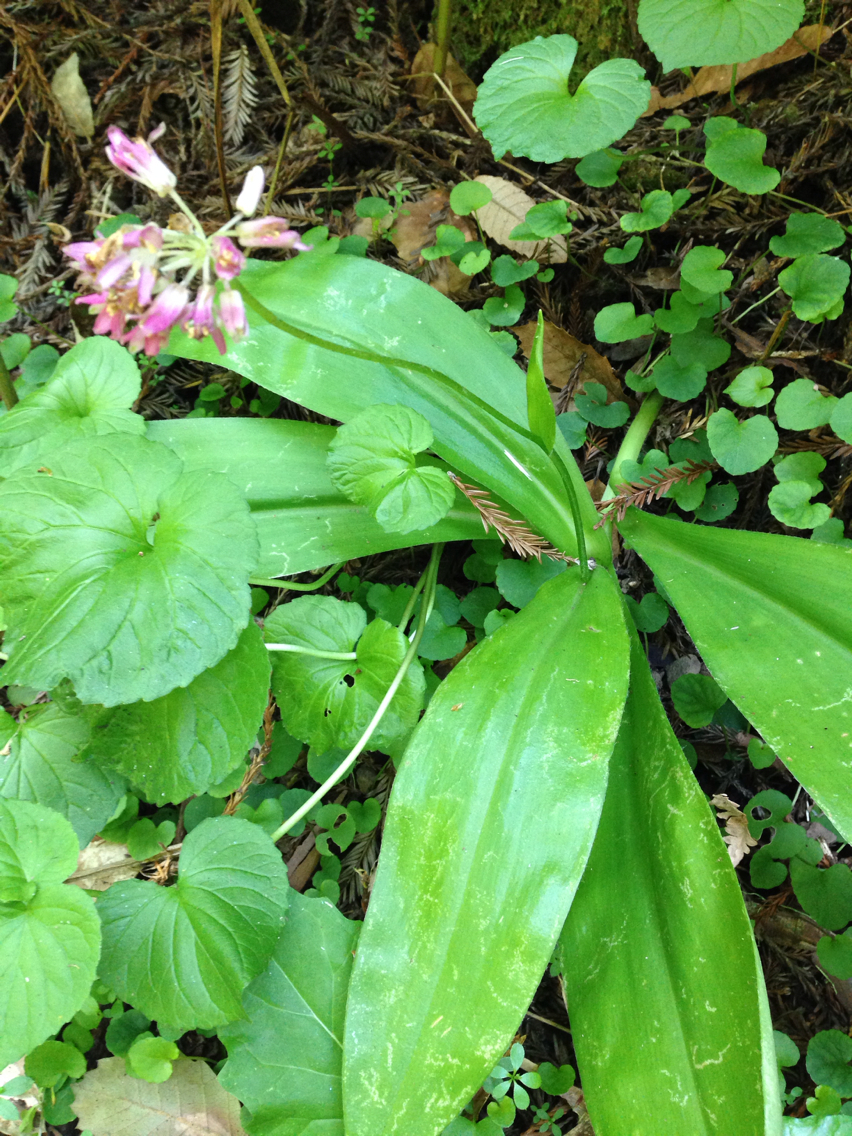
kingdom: Plantae
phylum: Tracheophyta
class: Liliopsida
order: Liliales
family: Liliaceae
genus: Clintonia
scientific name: Clintonia andrewsiana
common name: Red clintonia
